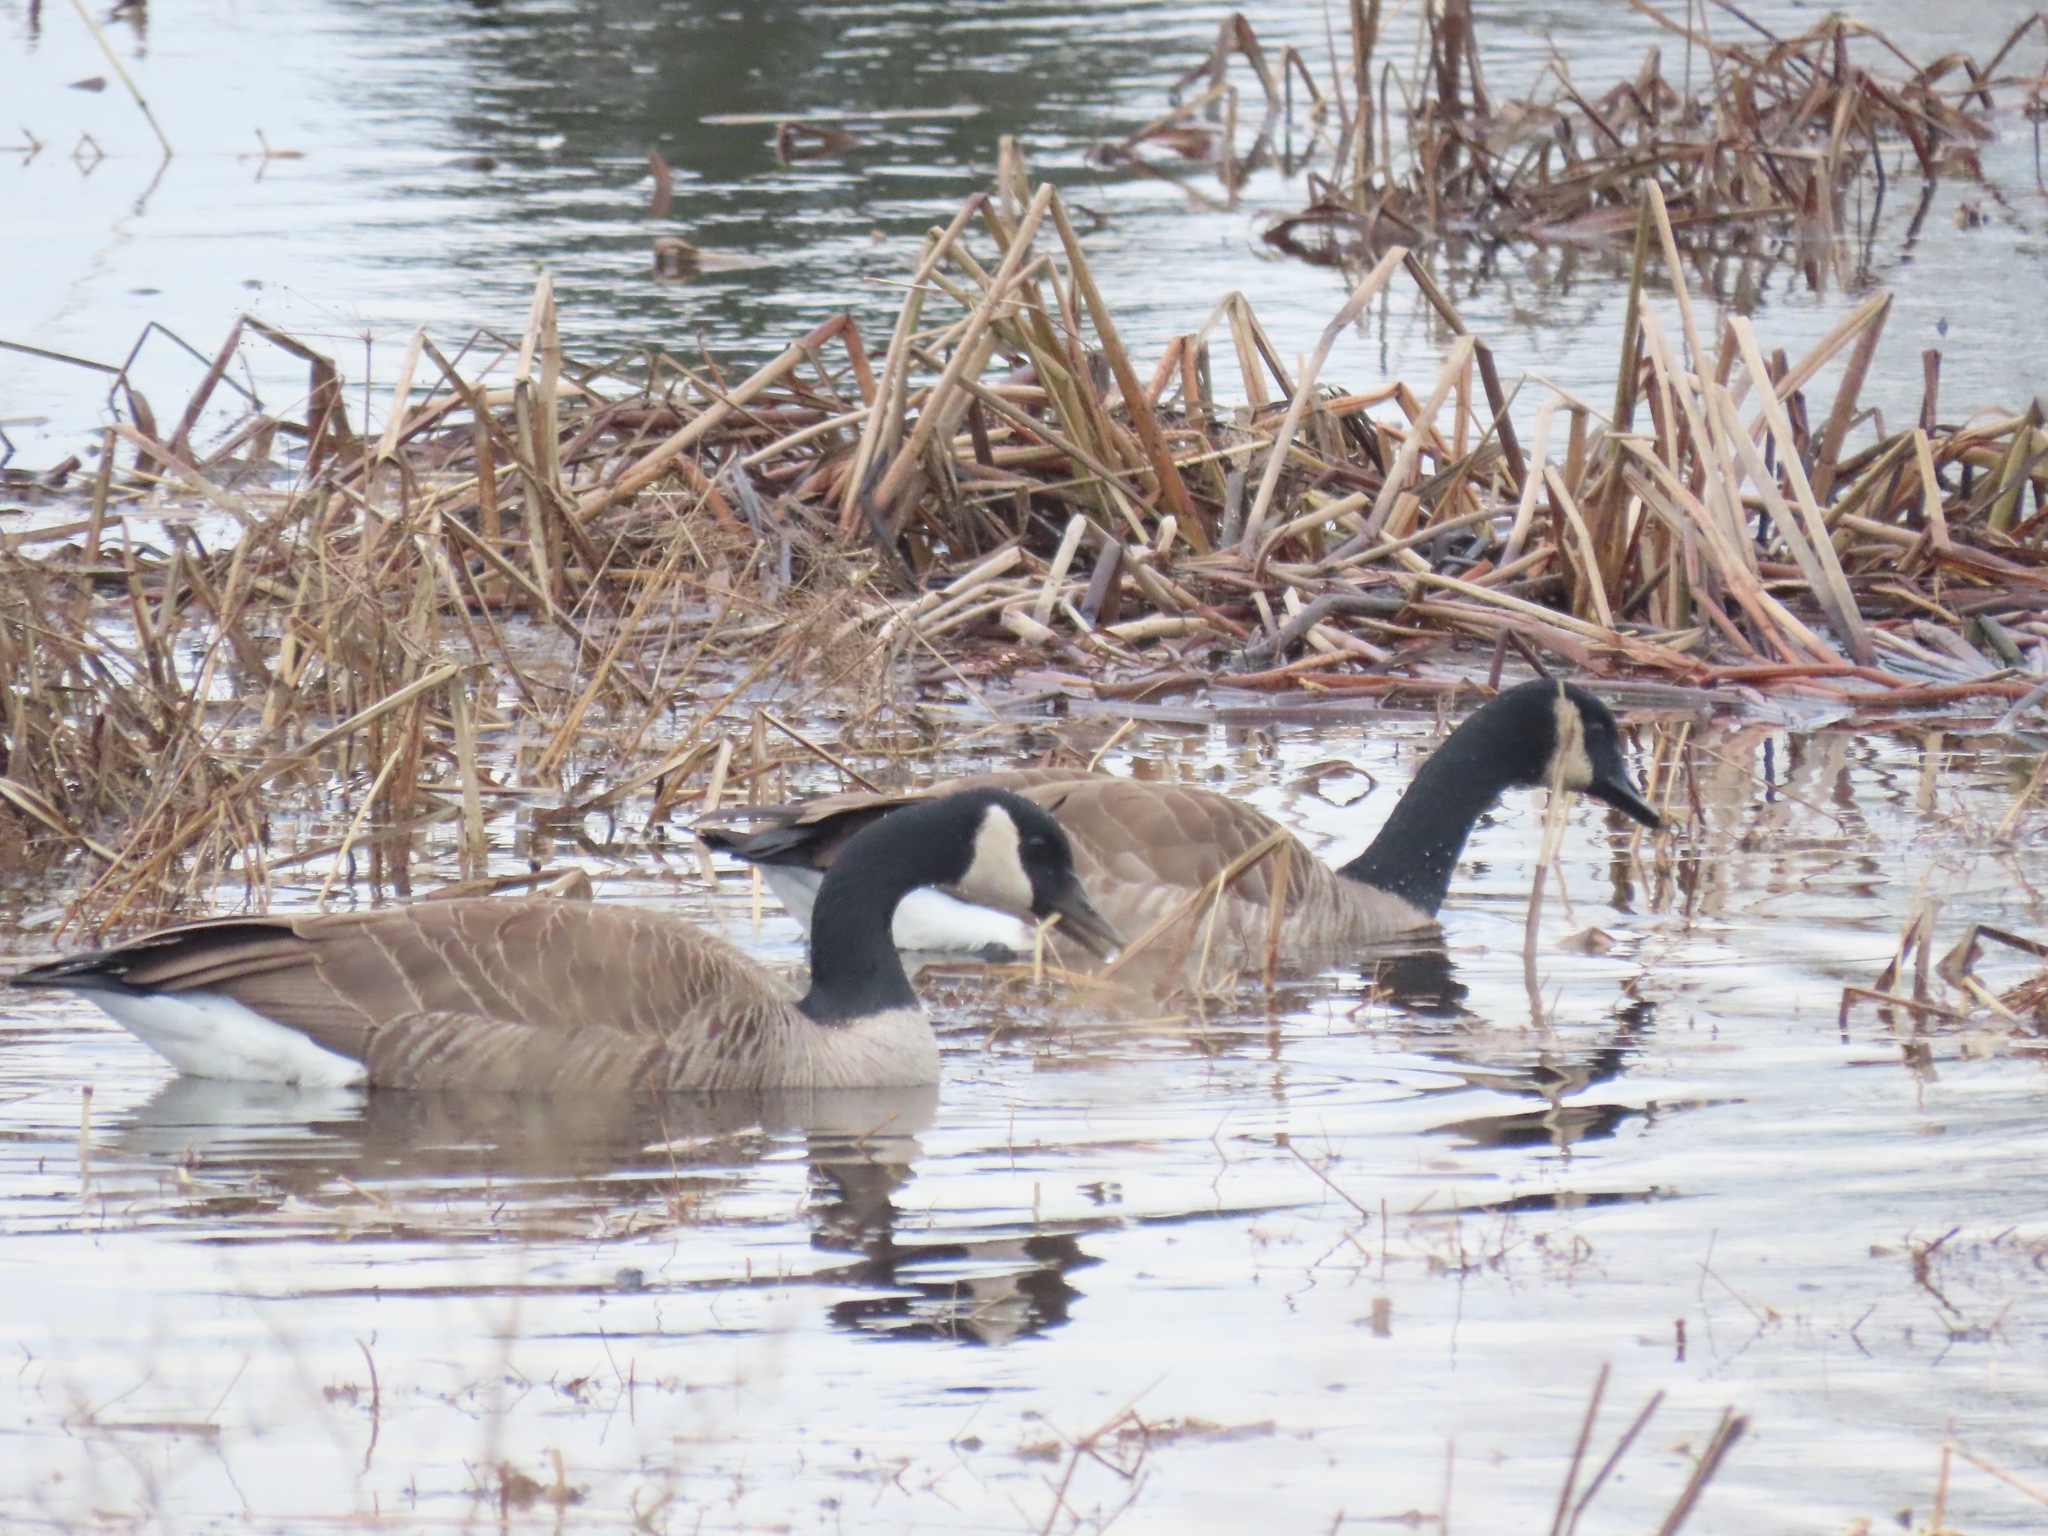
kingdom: Animalia
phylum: Chordata
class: Aves
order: Anseriformes
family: Anatidae
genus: Branta
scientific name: Branta canadensis
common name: Canada goose
